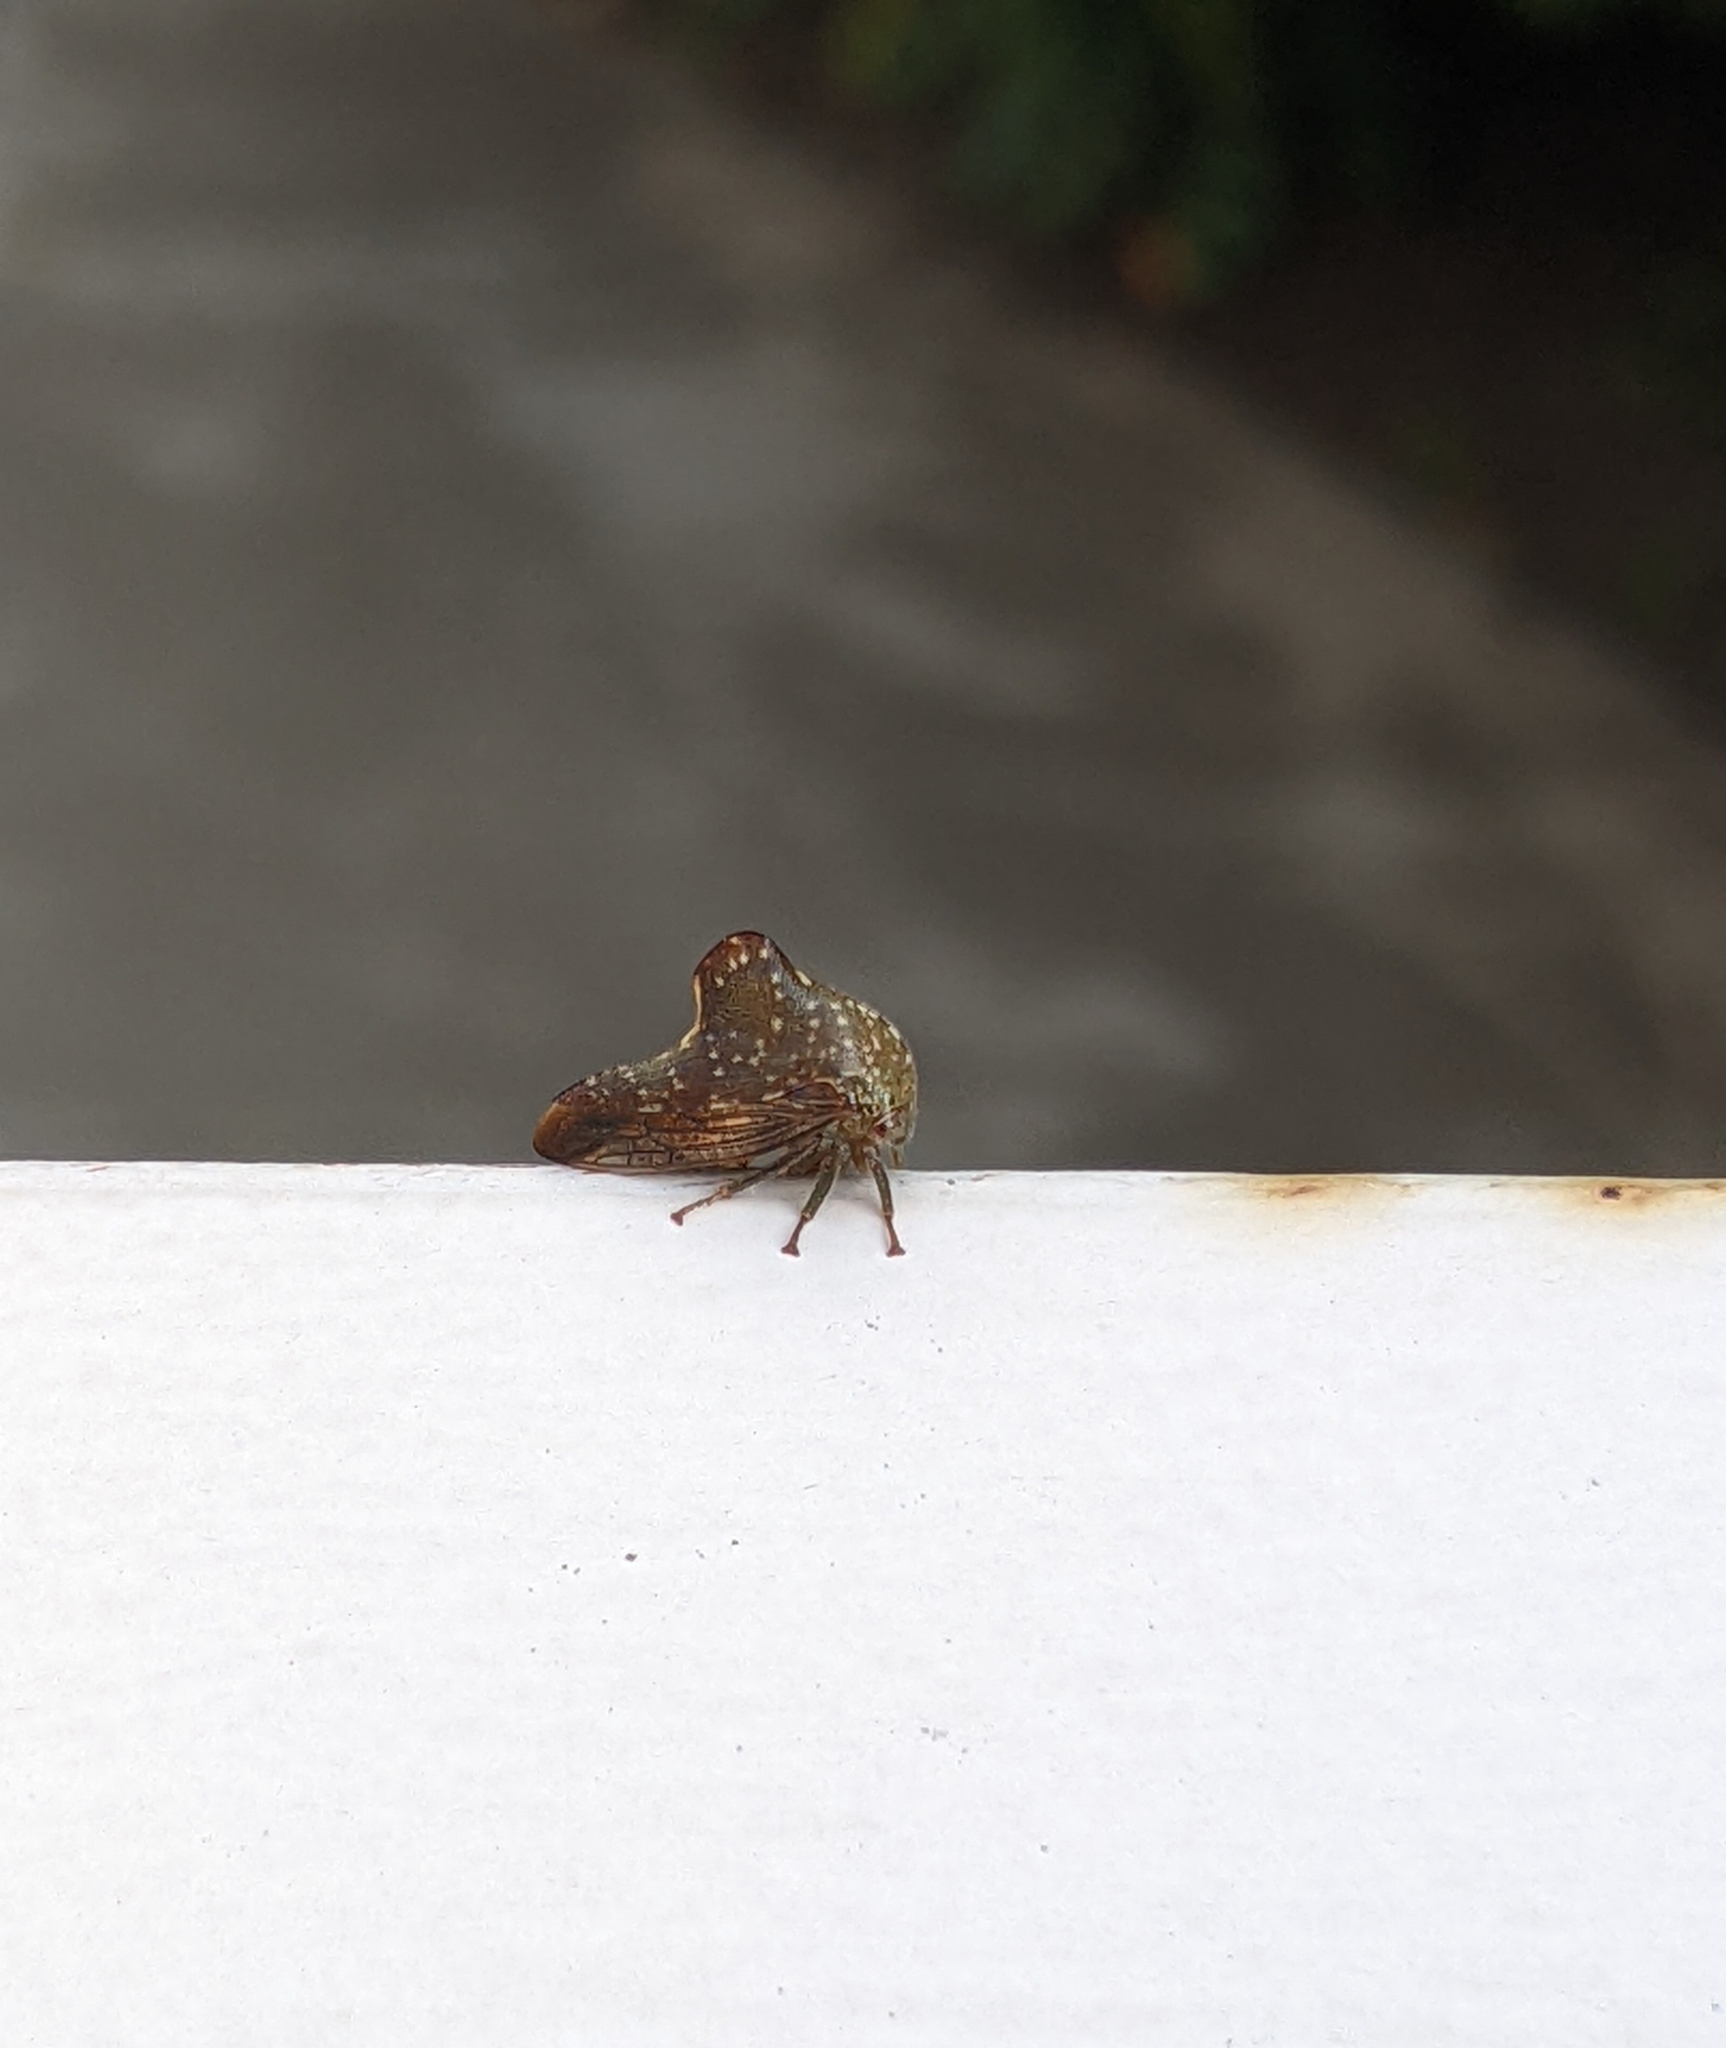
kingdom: Animalia
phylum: Arthropoda
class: Insecta
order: Hemiptera
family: Membracidae
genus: Telamona
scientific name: Telamona monticola
